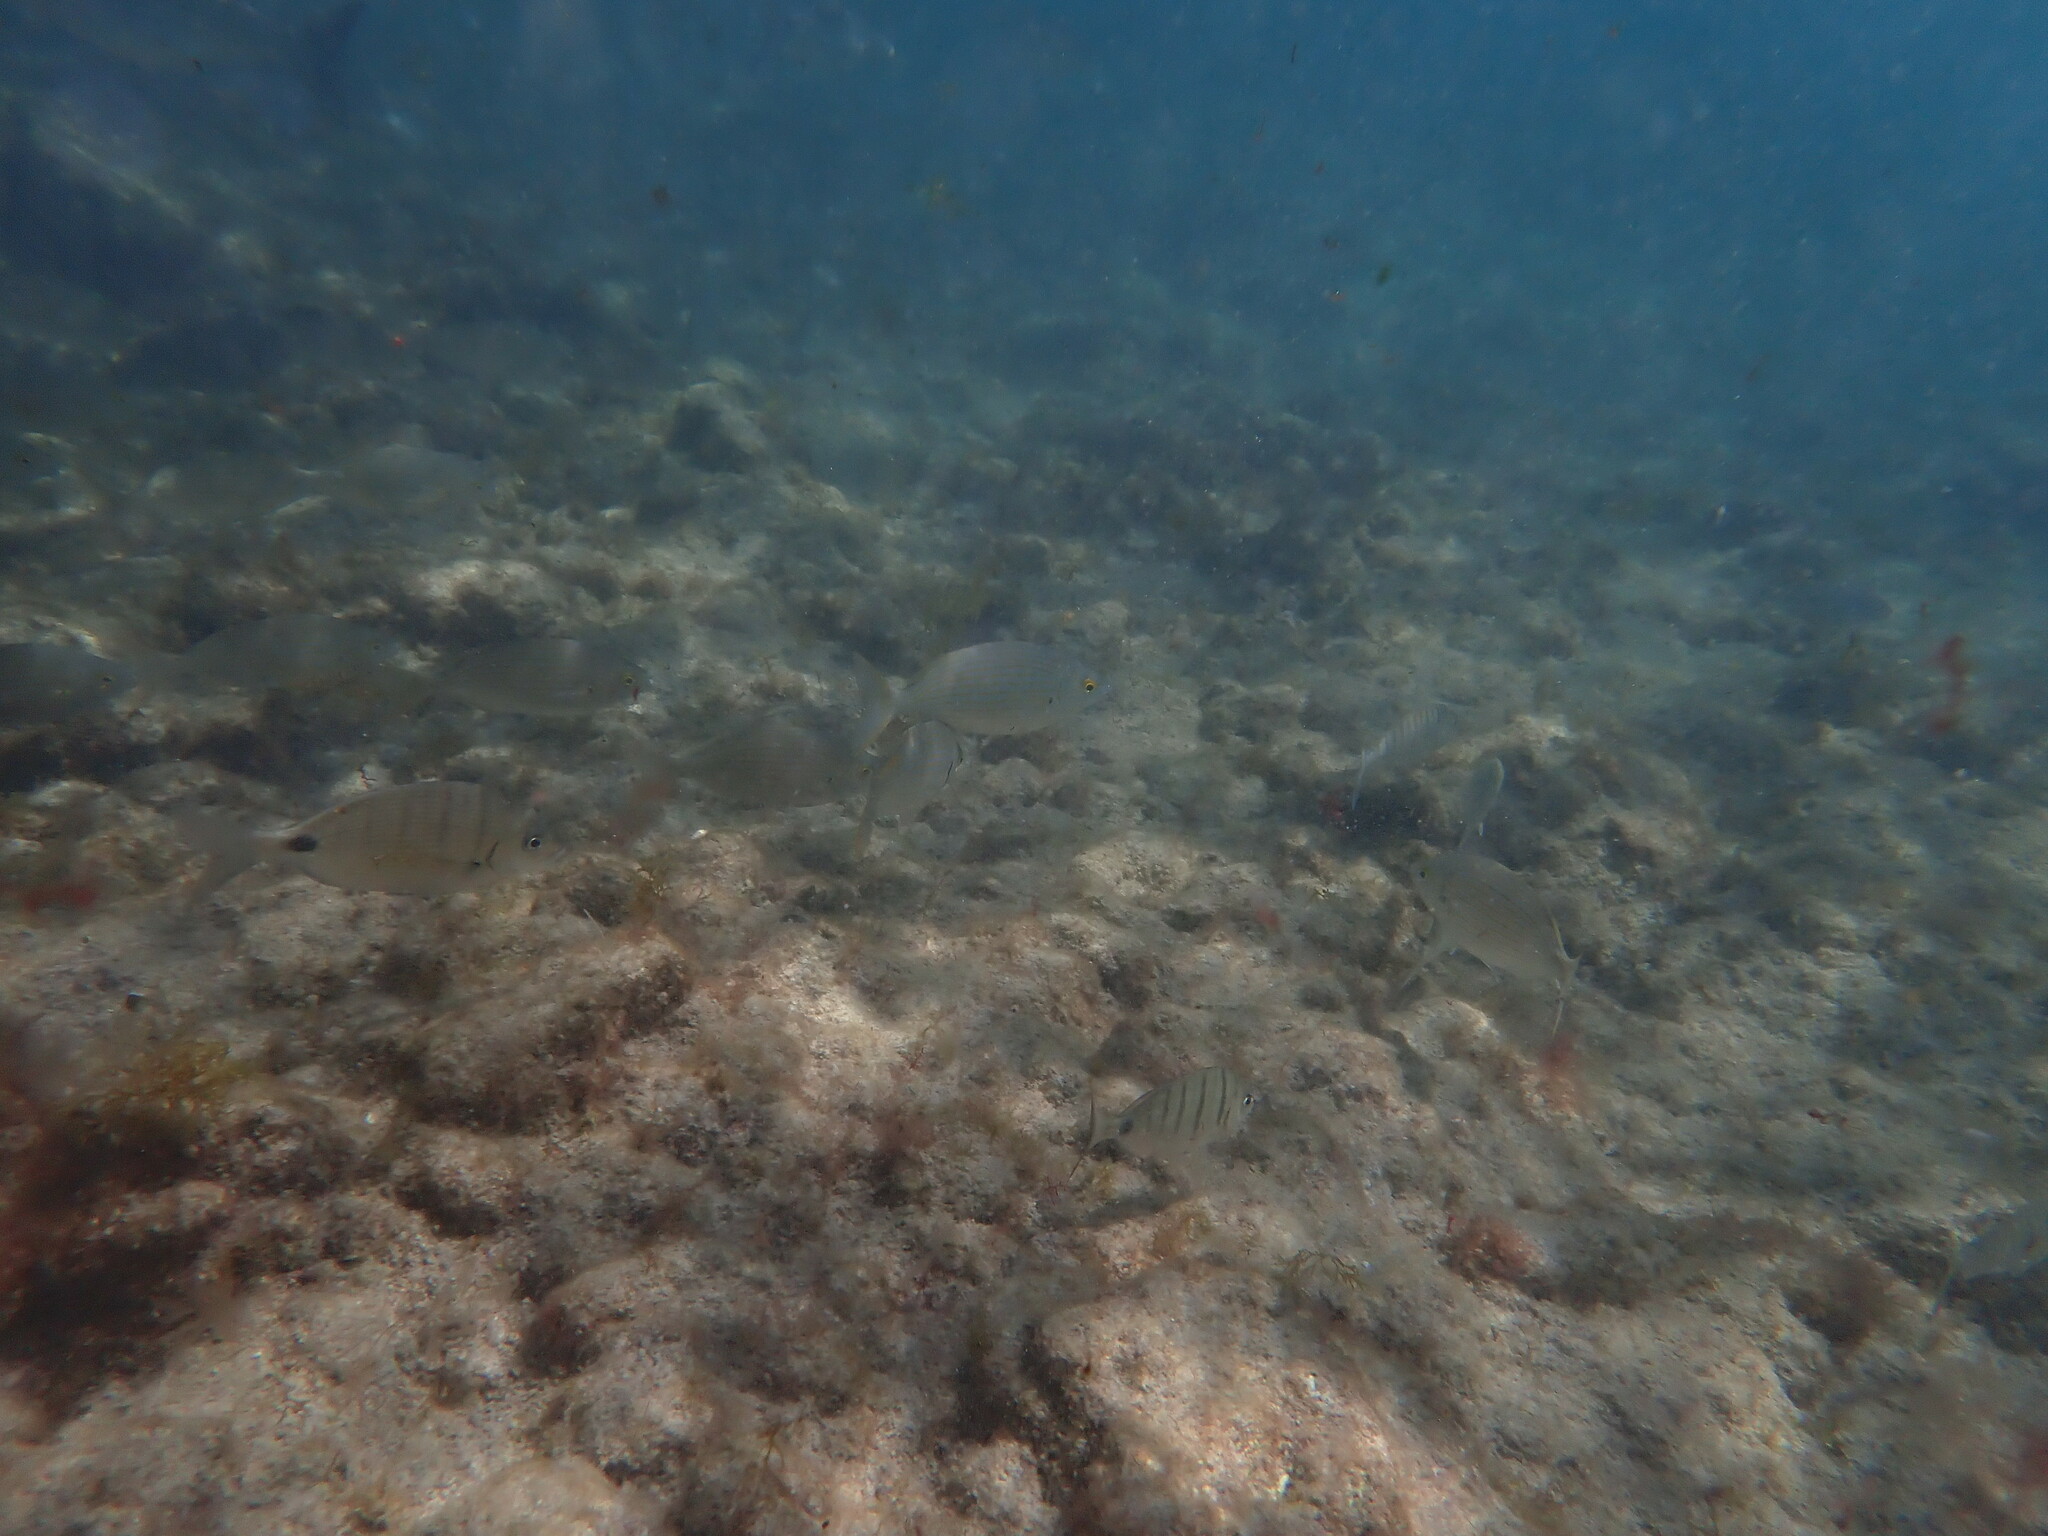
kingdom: Animalia
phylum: Chordata
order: Perciformes
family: Sparidae
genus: Sarpa
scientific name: Sarpa salpa
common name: Salema
